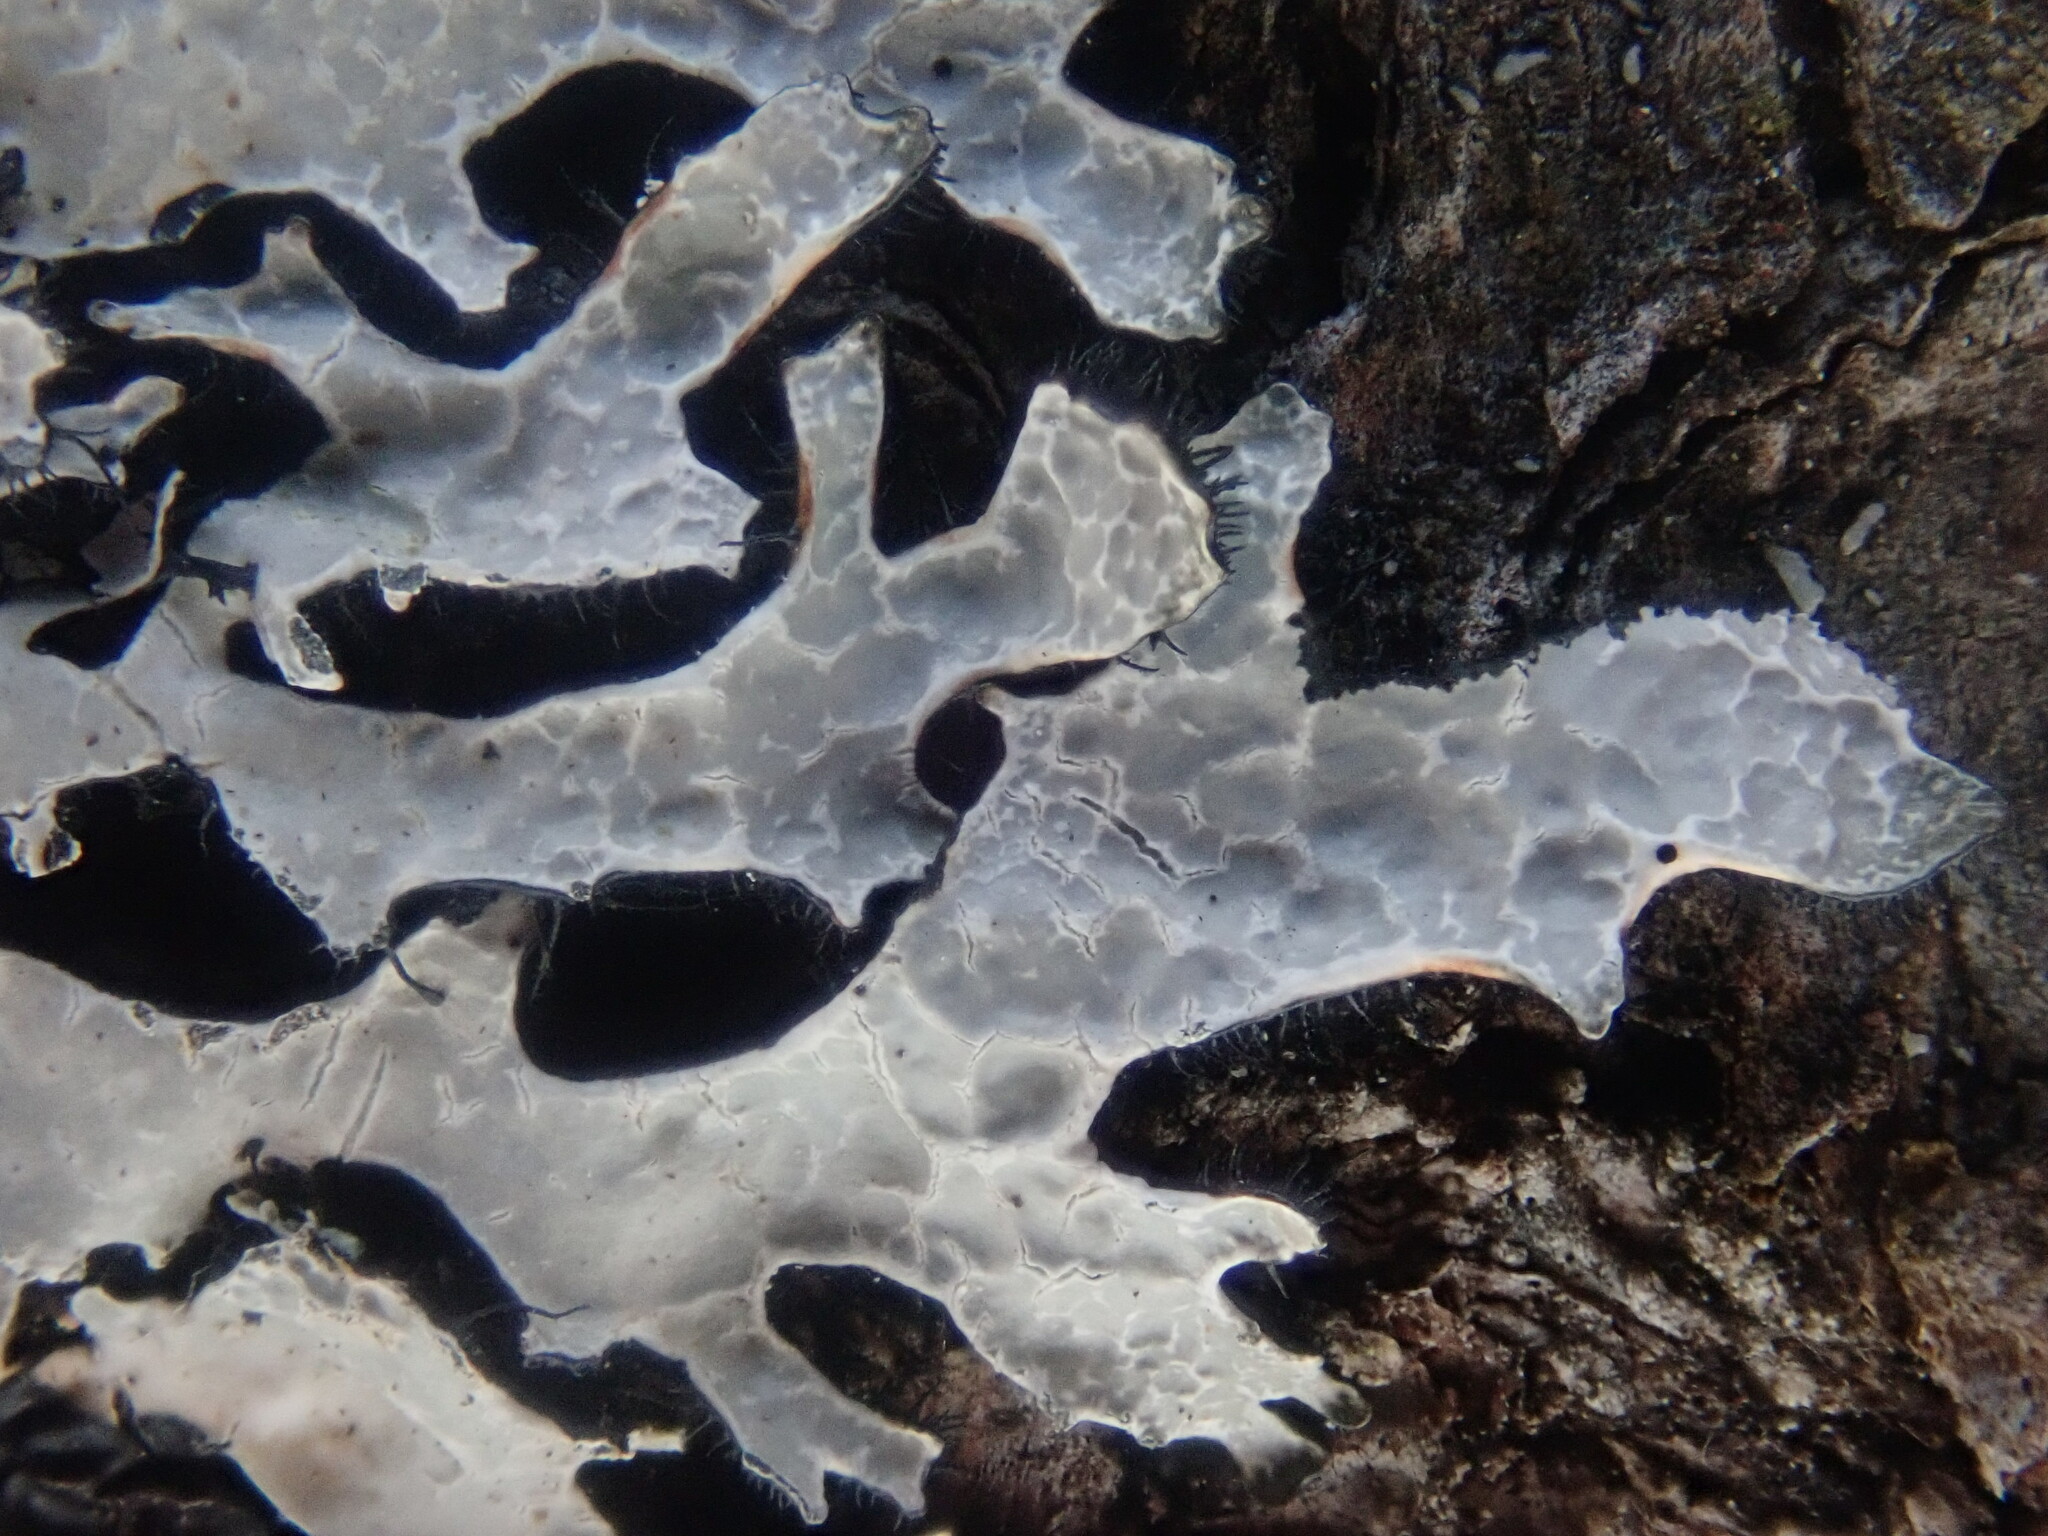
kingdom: Fungi
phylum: Ascomycota
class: Lecanoromycetes
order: Lecanorales
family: Parmeliaceae
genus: Parmelia
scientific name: Parmelia sulcata
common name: Netted shield lichen
